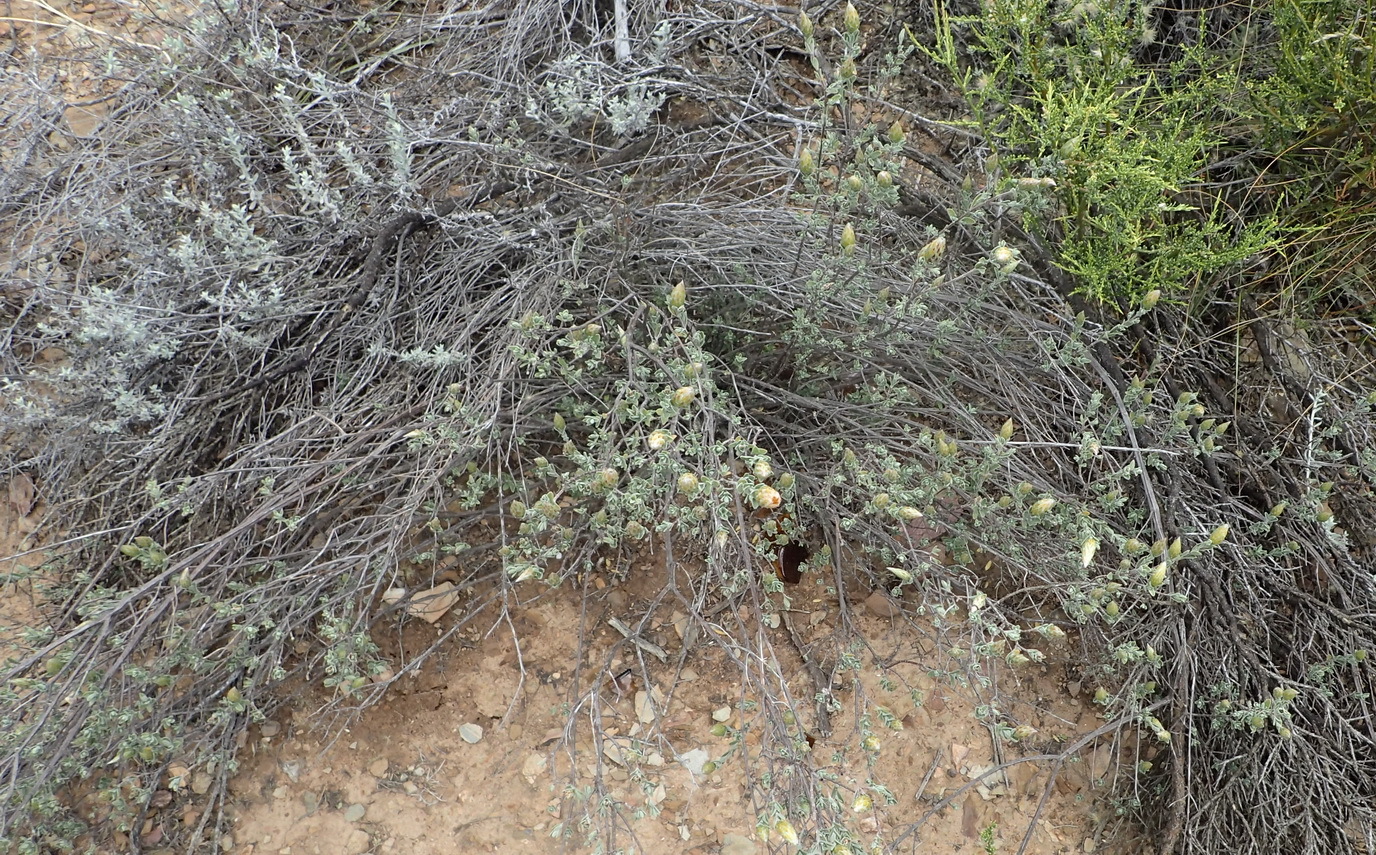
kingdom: Plantae
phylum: Tracheophyta
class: Magnoliopsida
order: Asterales
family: Asteraceae
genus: Pteronia
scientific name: Pteronia membranacea
